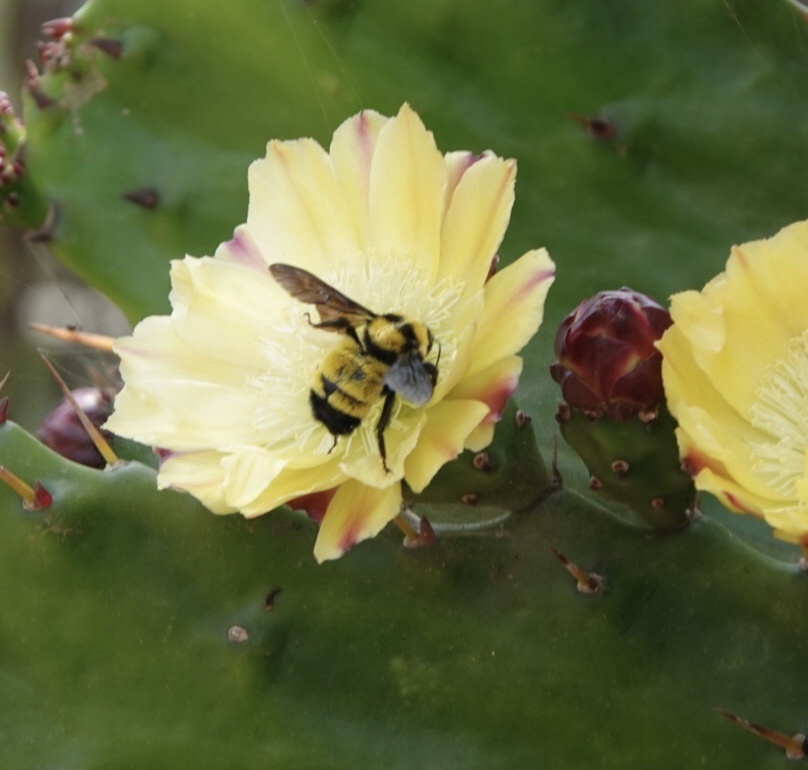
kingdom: Animalia
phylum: Arthropoda
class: Insecta
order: Hymenoptera
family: Apidae
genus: Bombus
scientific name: Bombus sonorus
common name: Sonoran bumble bee
